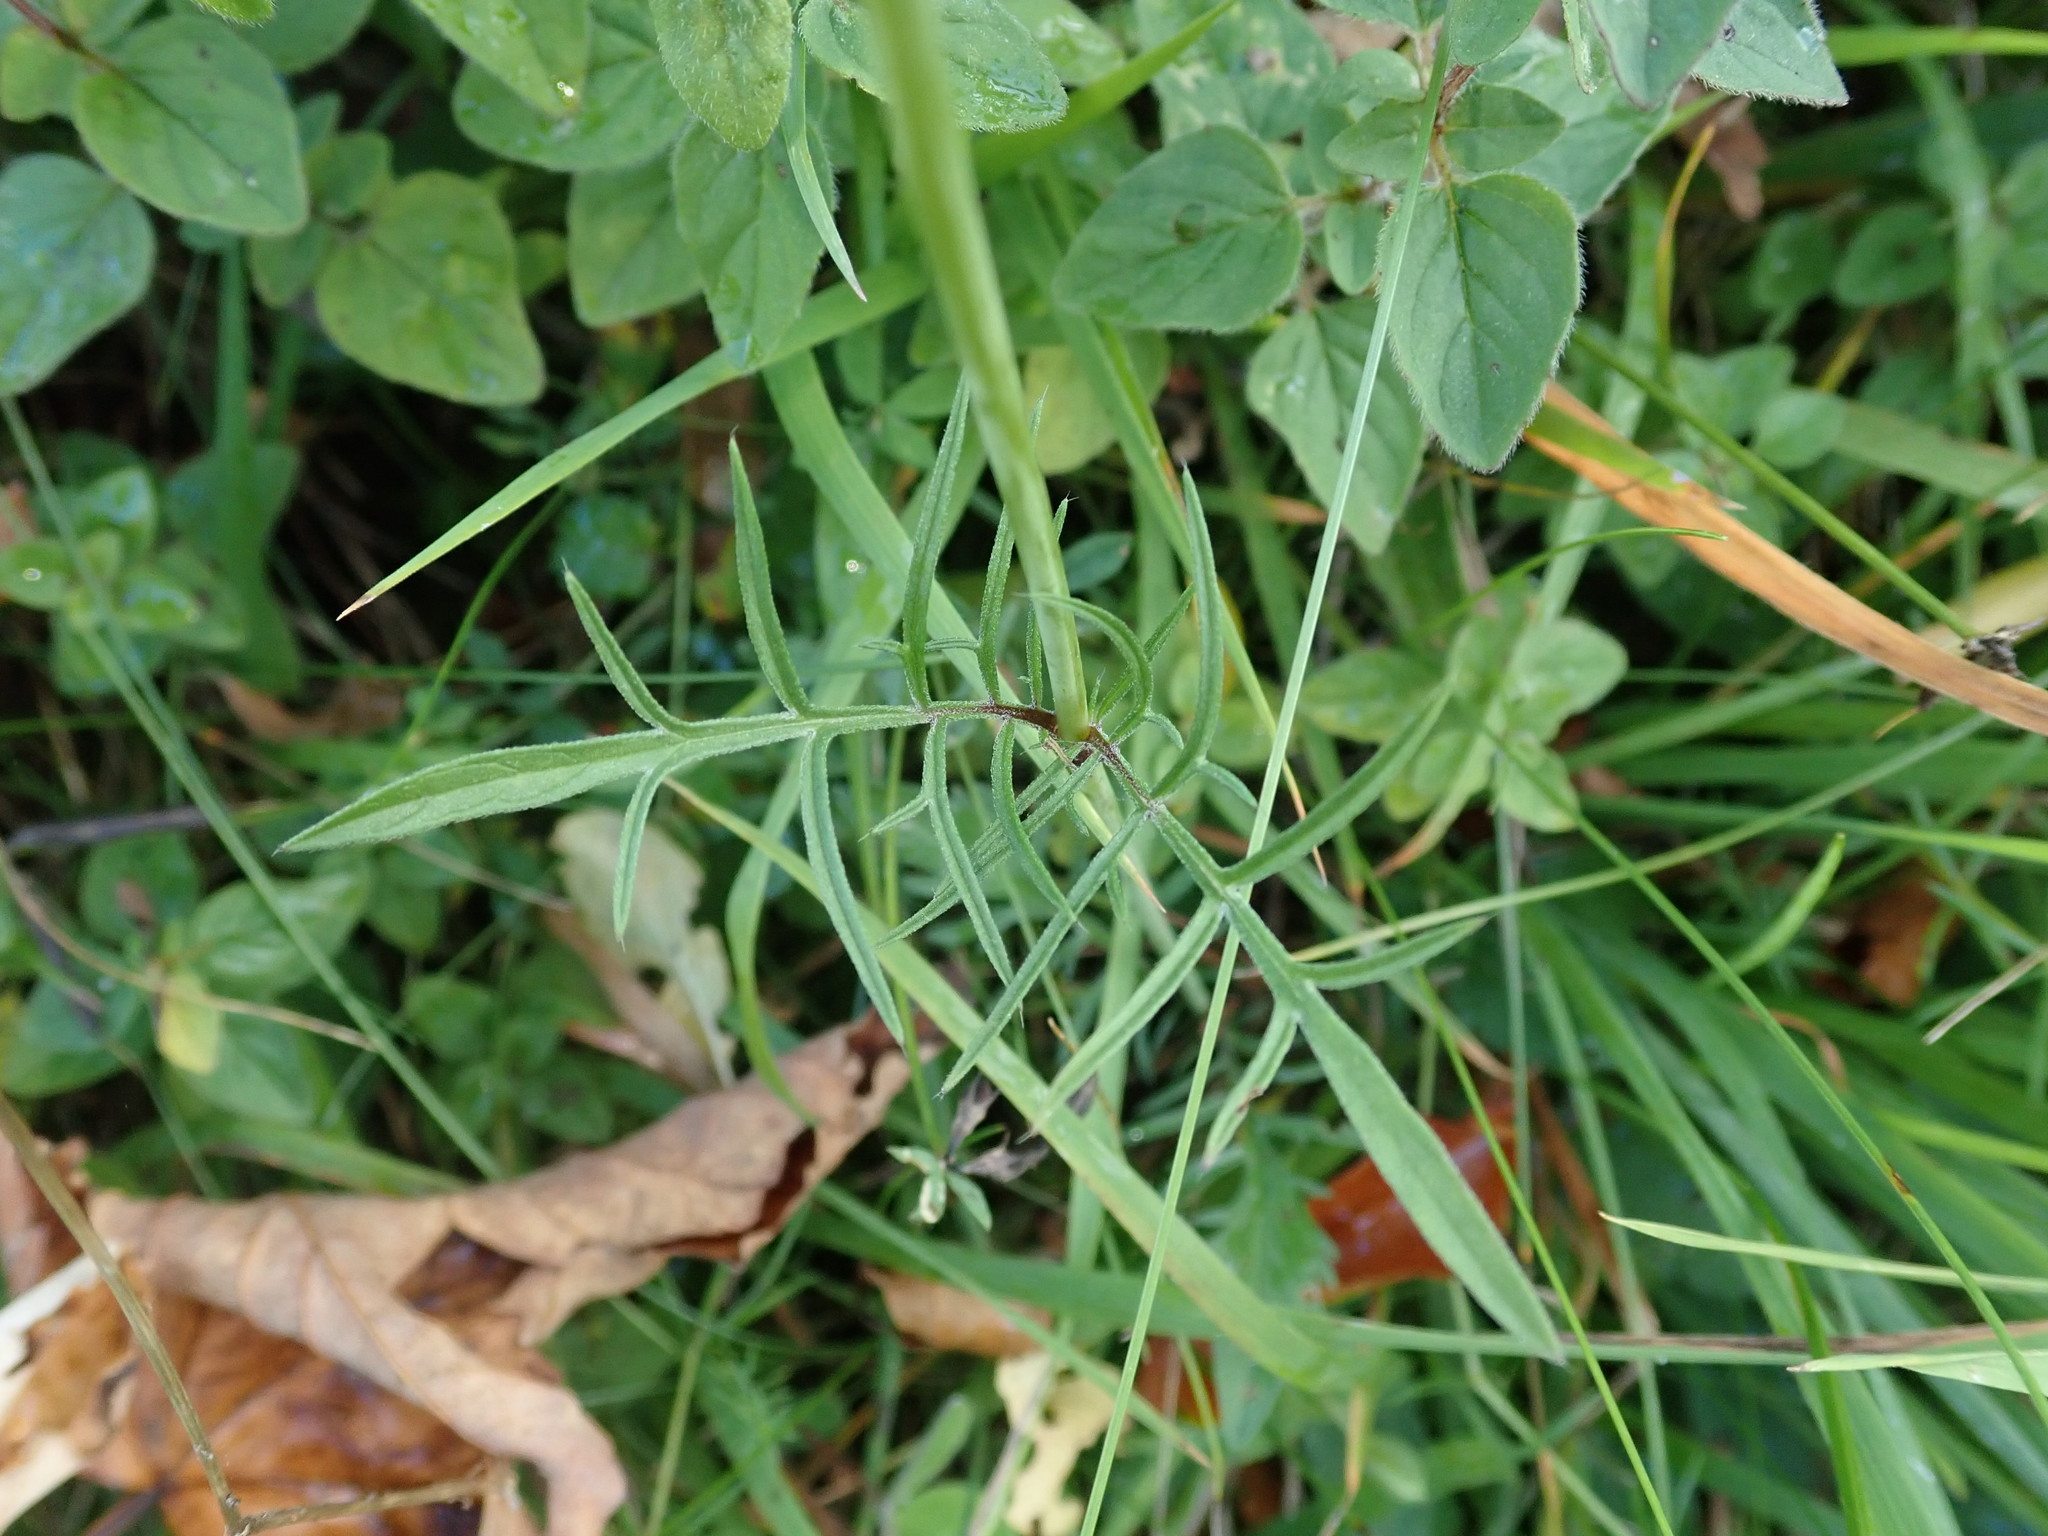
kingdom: Plantae
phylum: Tracheophyta
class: Magnoliopsida
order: Dipsacales
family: Caprifoliaceae
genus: Scabiosa
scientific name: Scabiosa columbaria
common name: Small scabious
